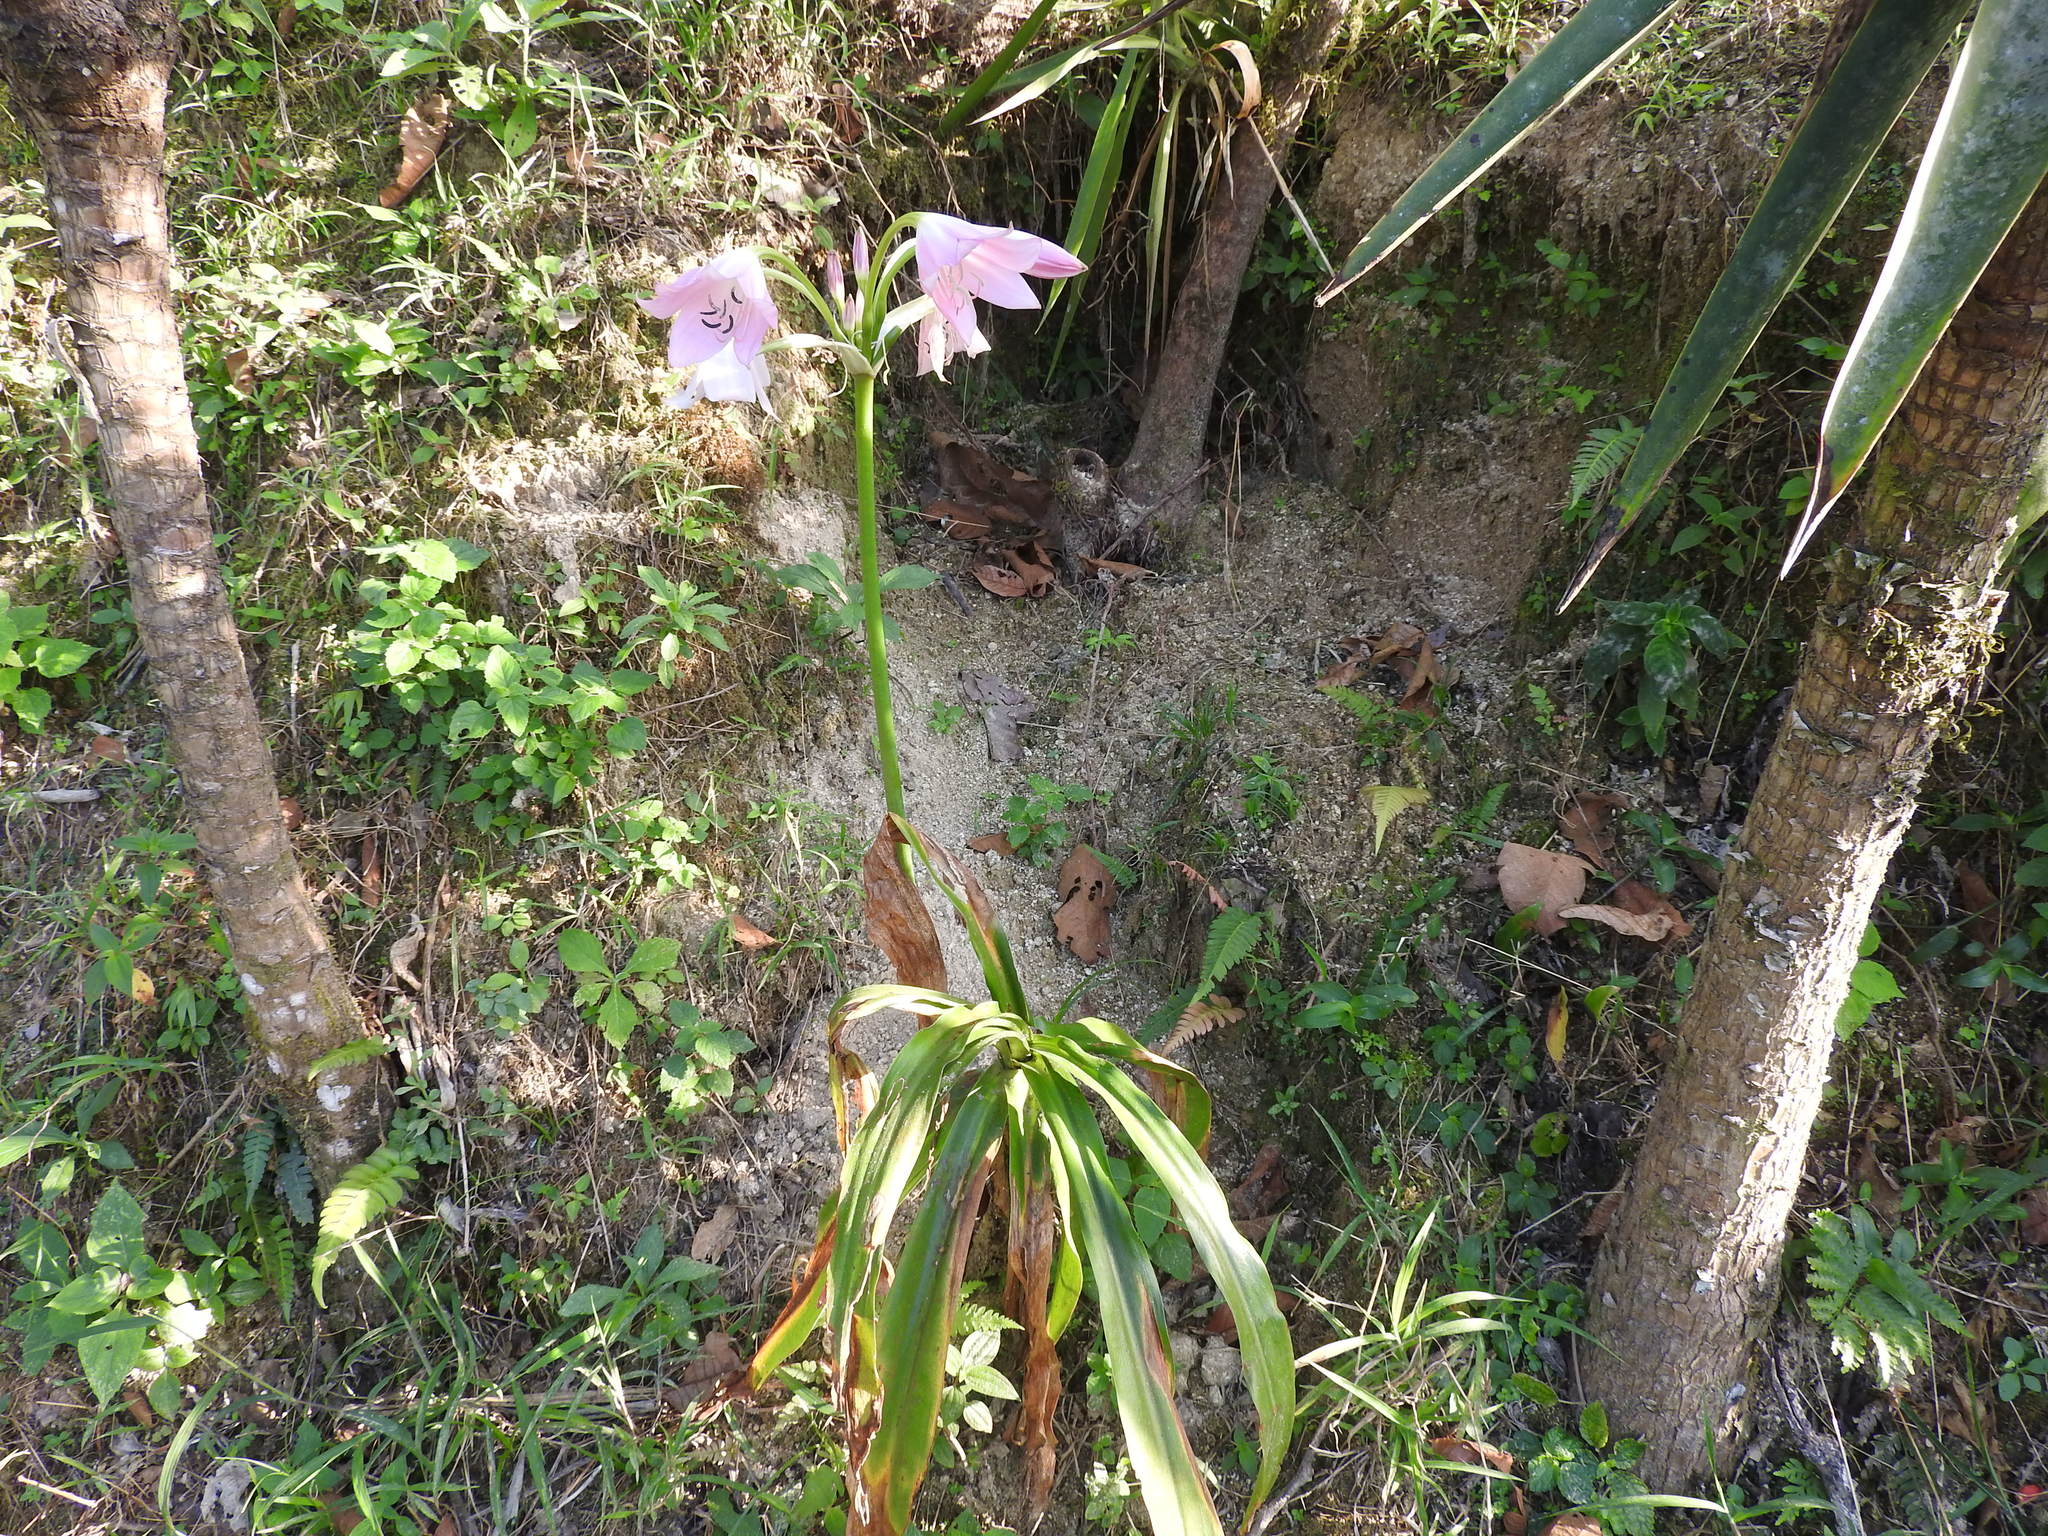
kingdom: Plantae
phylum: Tracheophyta
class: Liliopsida
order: Asparagales
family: Amaryllidaceae
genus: Crinum
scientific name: Crinum moorei
